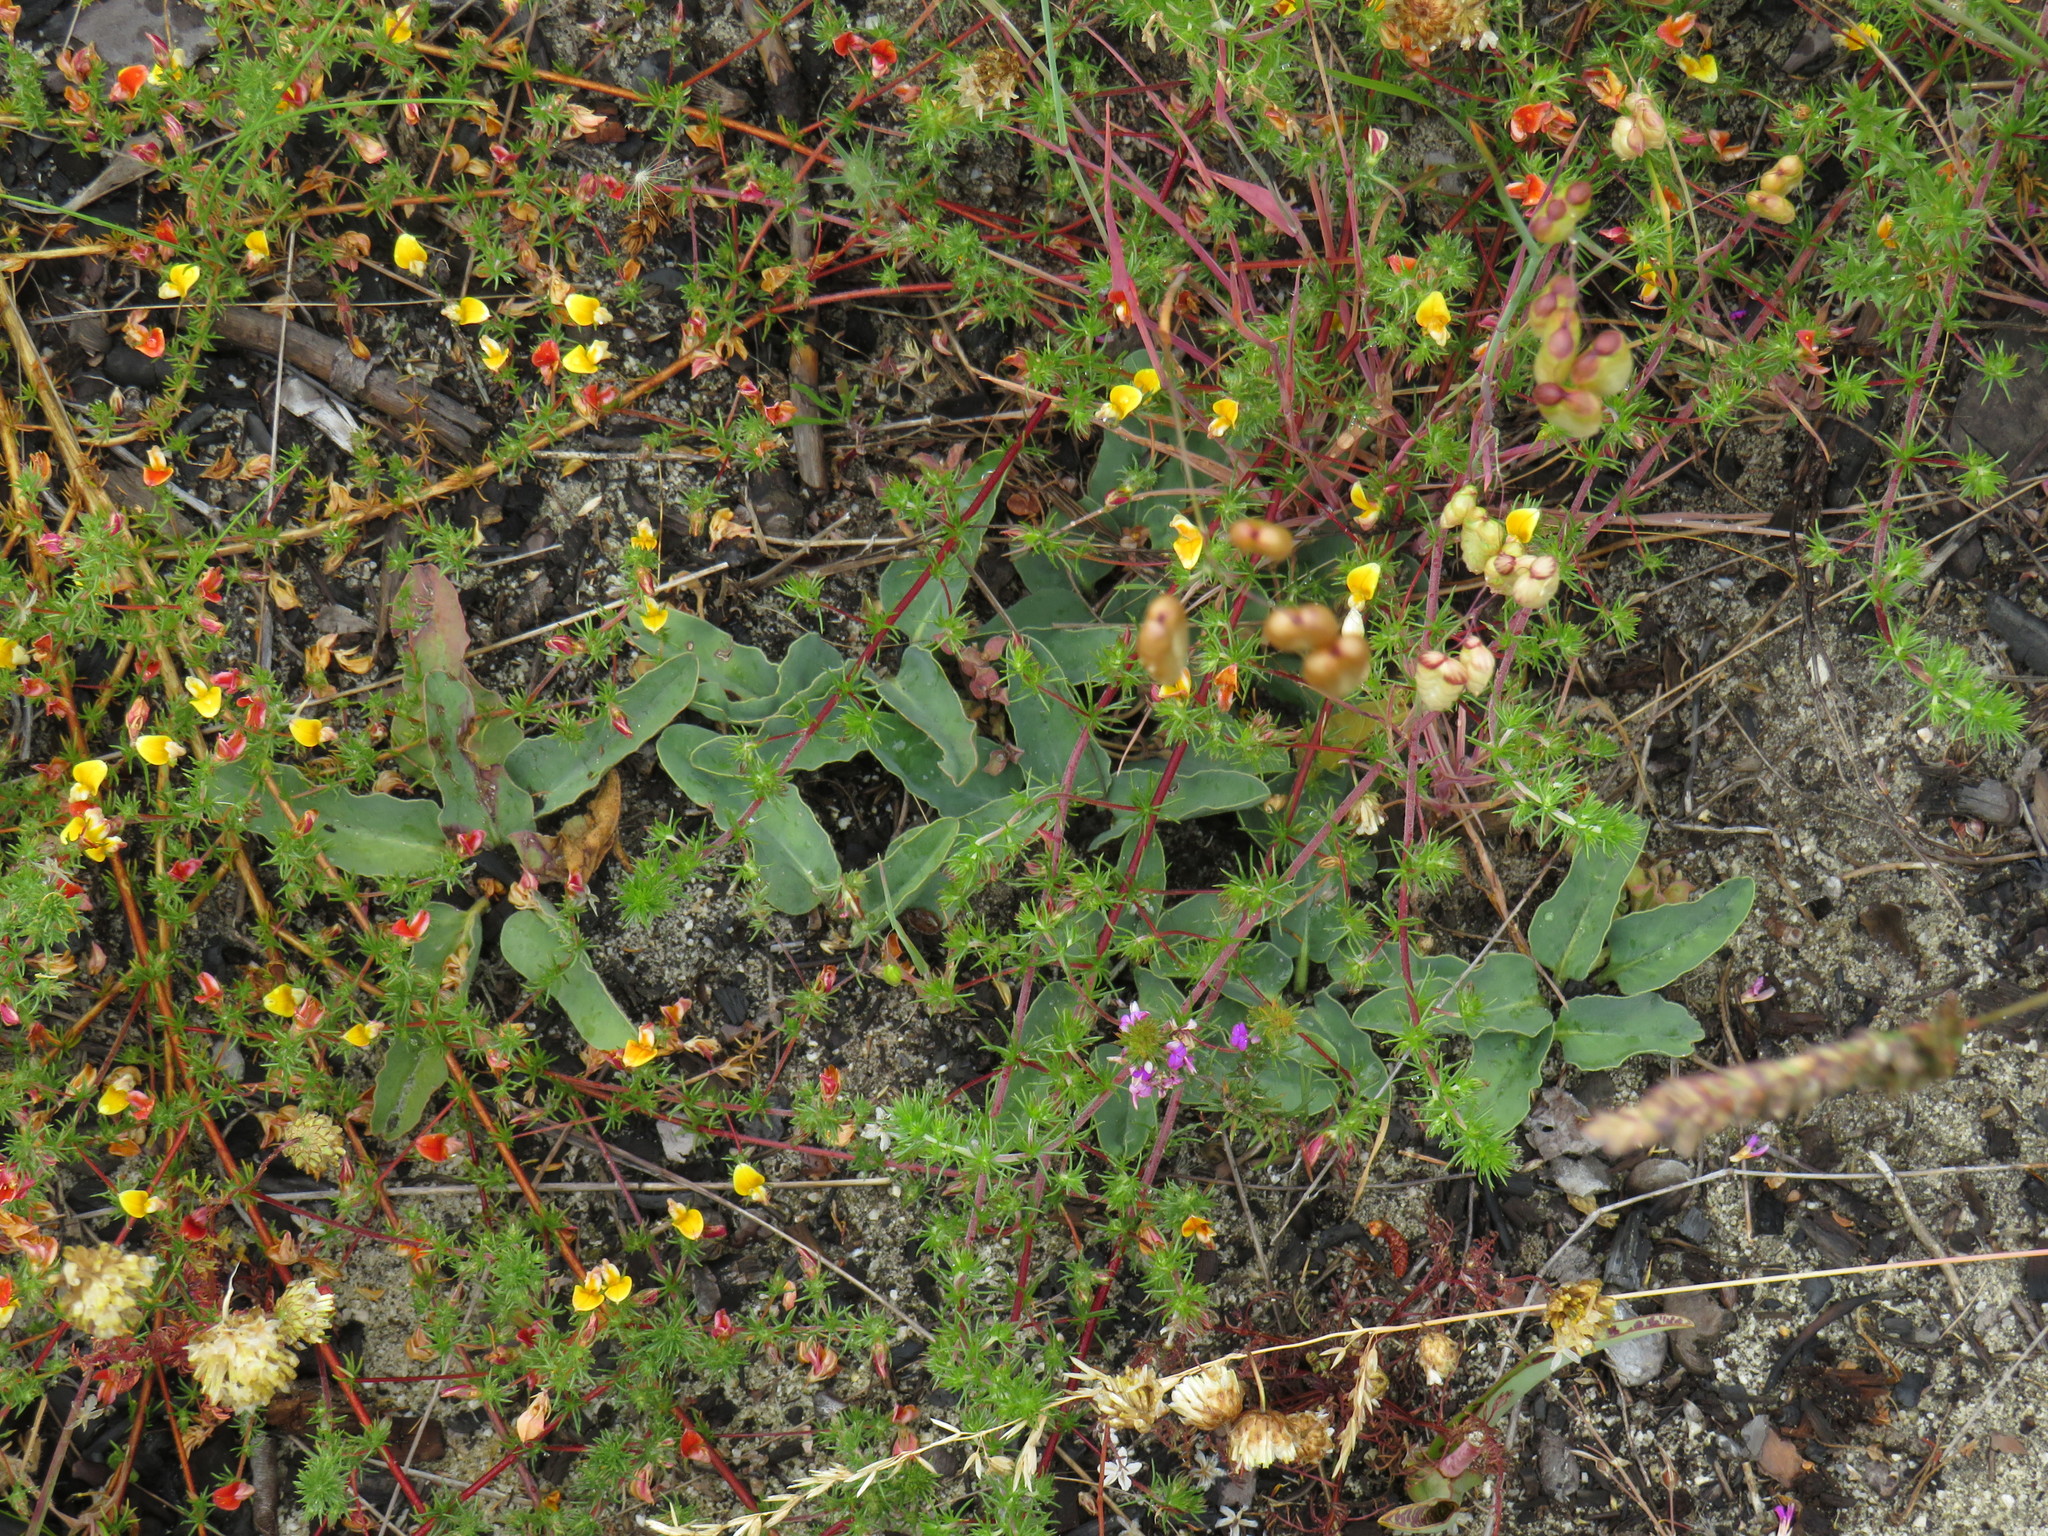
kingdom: Plantae
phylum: Tracheophyta
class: Magnoliopsida
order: Malpighiales
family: Euphorbiaceae
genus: Euphorbia
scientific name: Euphorbia tuberosa
